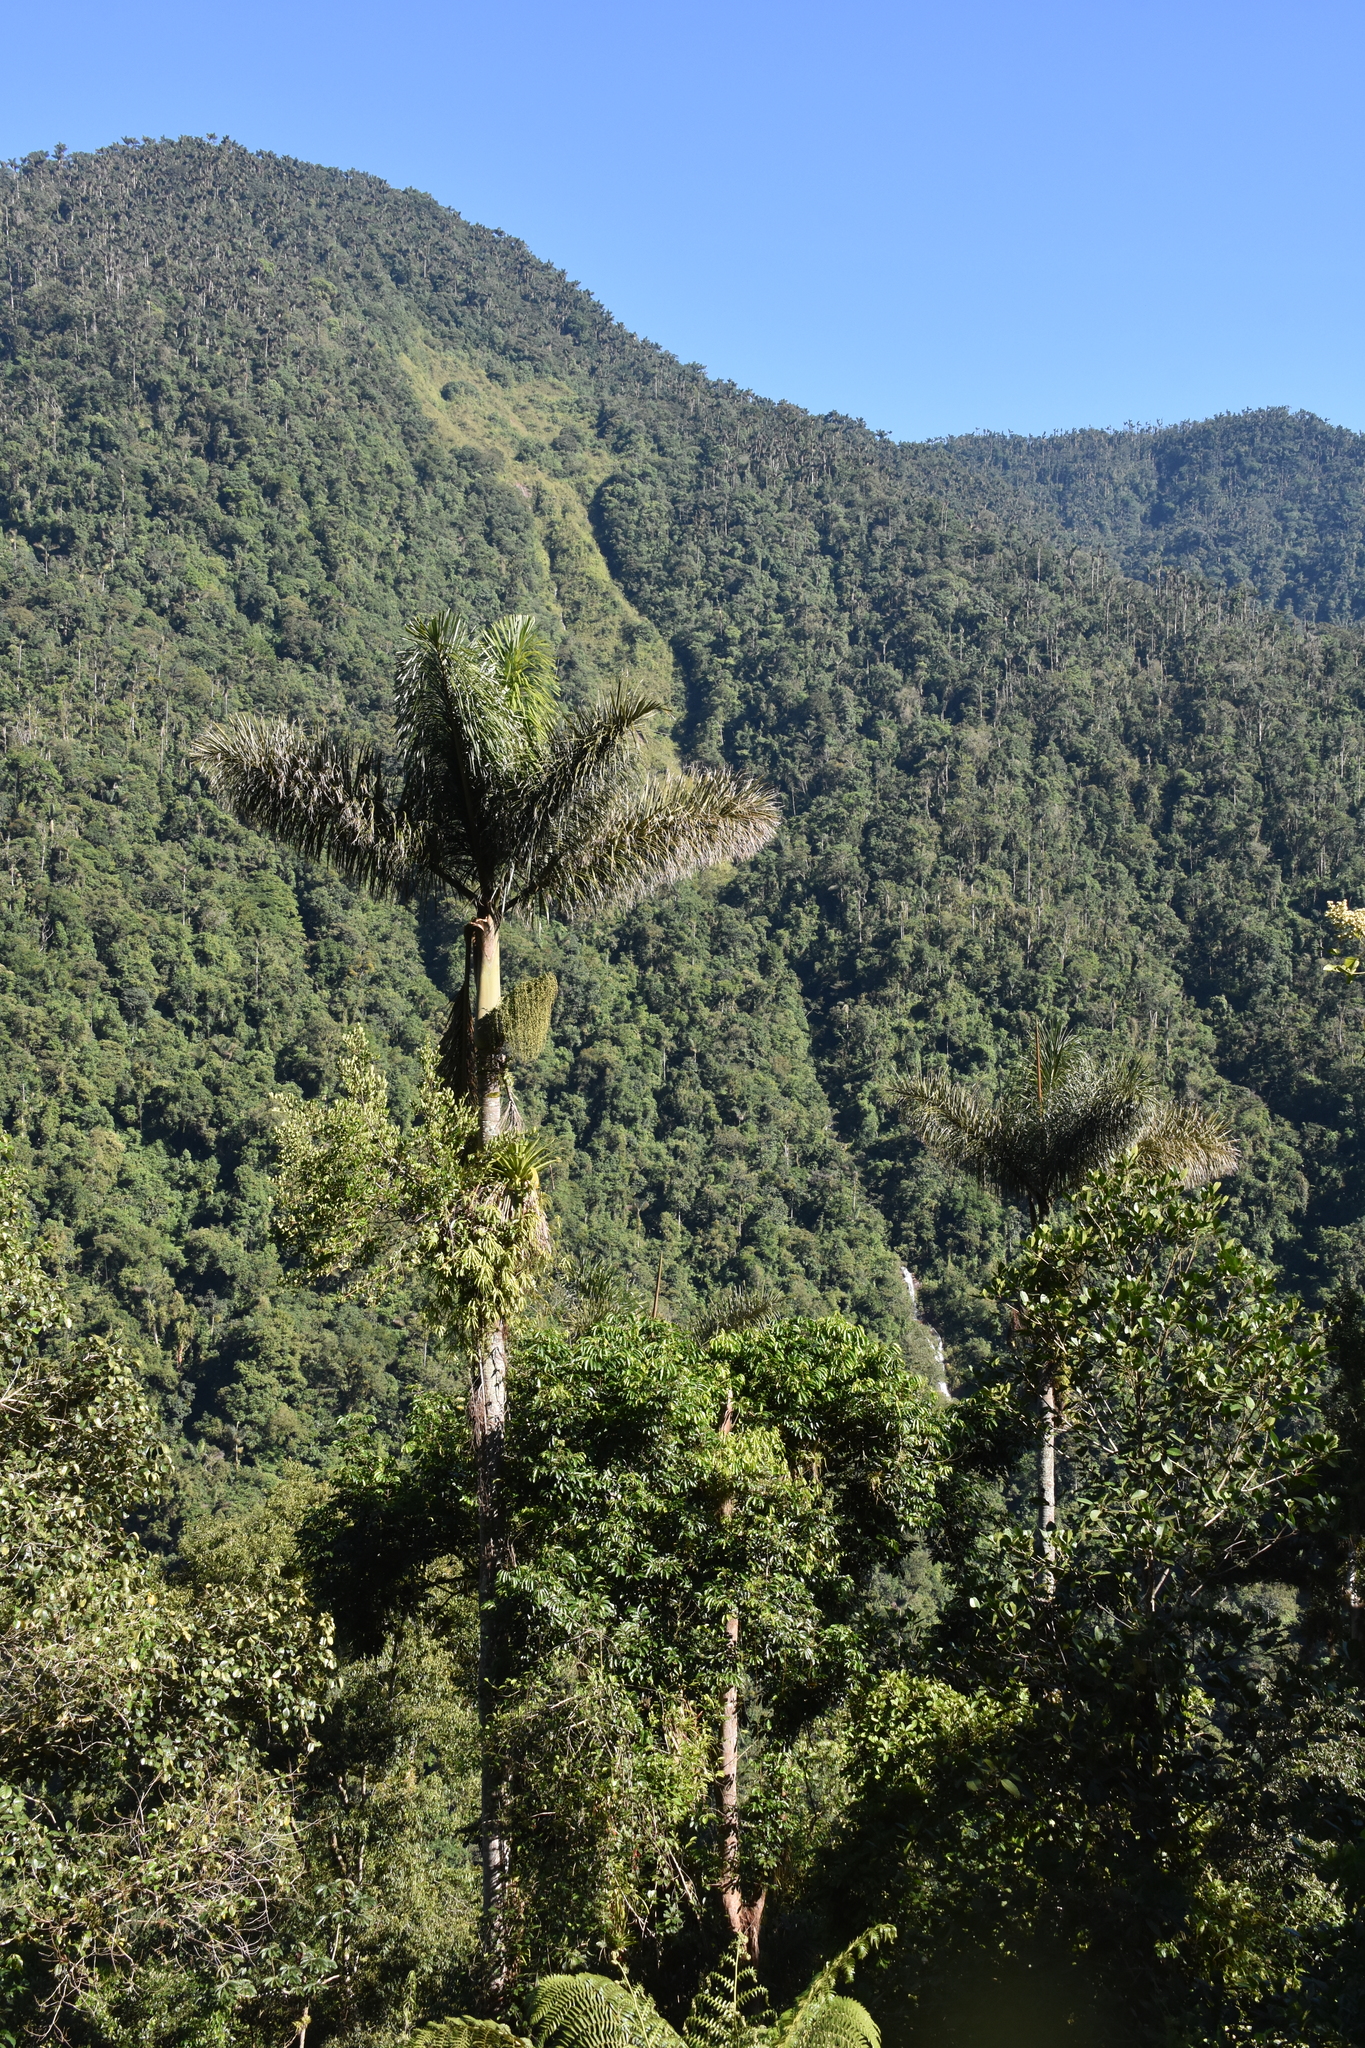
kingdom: Plantae
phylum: Tracheophyta
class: Liliopsida
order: Arecales
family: Arecaceae
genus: Dictyocaryum
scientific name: Dictyocaryum lamarckianum
